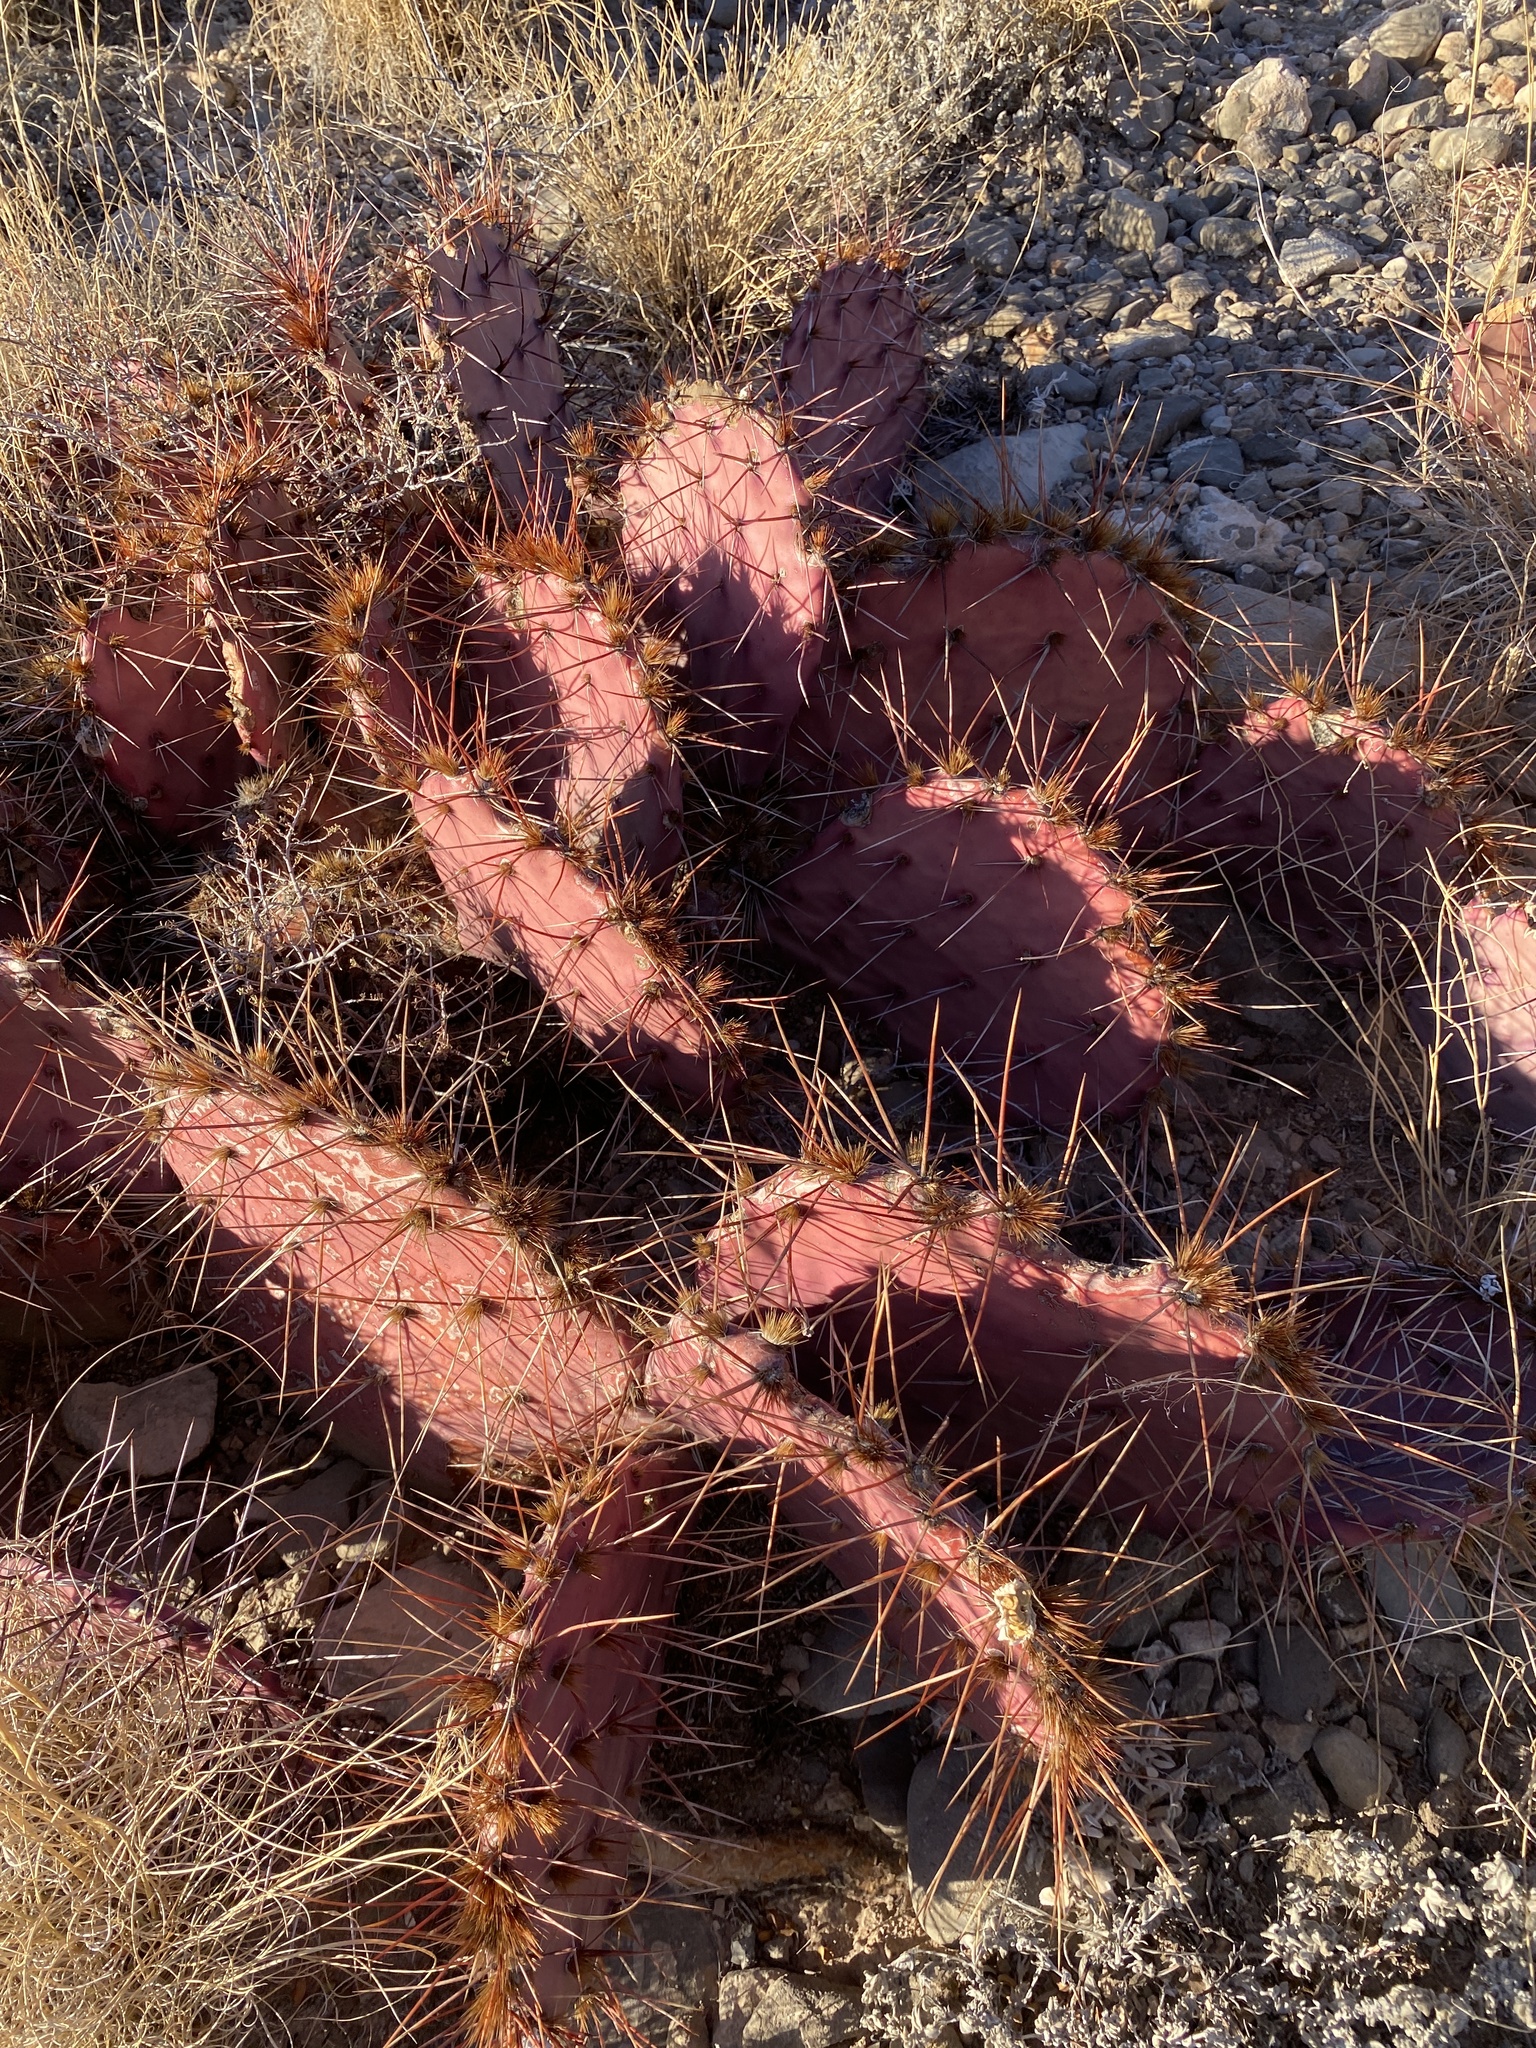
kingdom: Plantae
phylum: Tracheophyta
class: Magnoliopsida
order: Caryophyllales
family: Cactaceae
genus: Opuntia
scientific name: Opuntia macrocentra
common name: Purple prickly-pear
